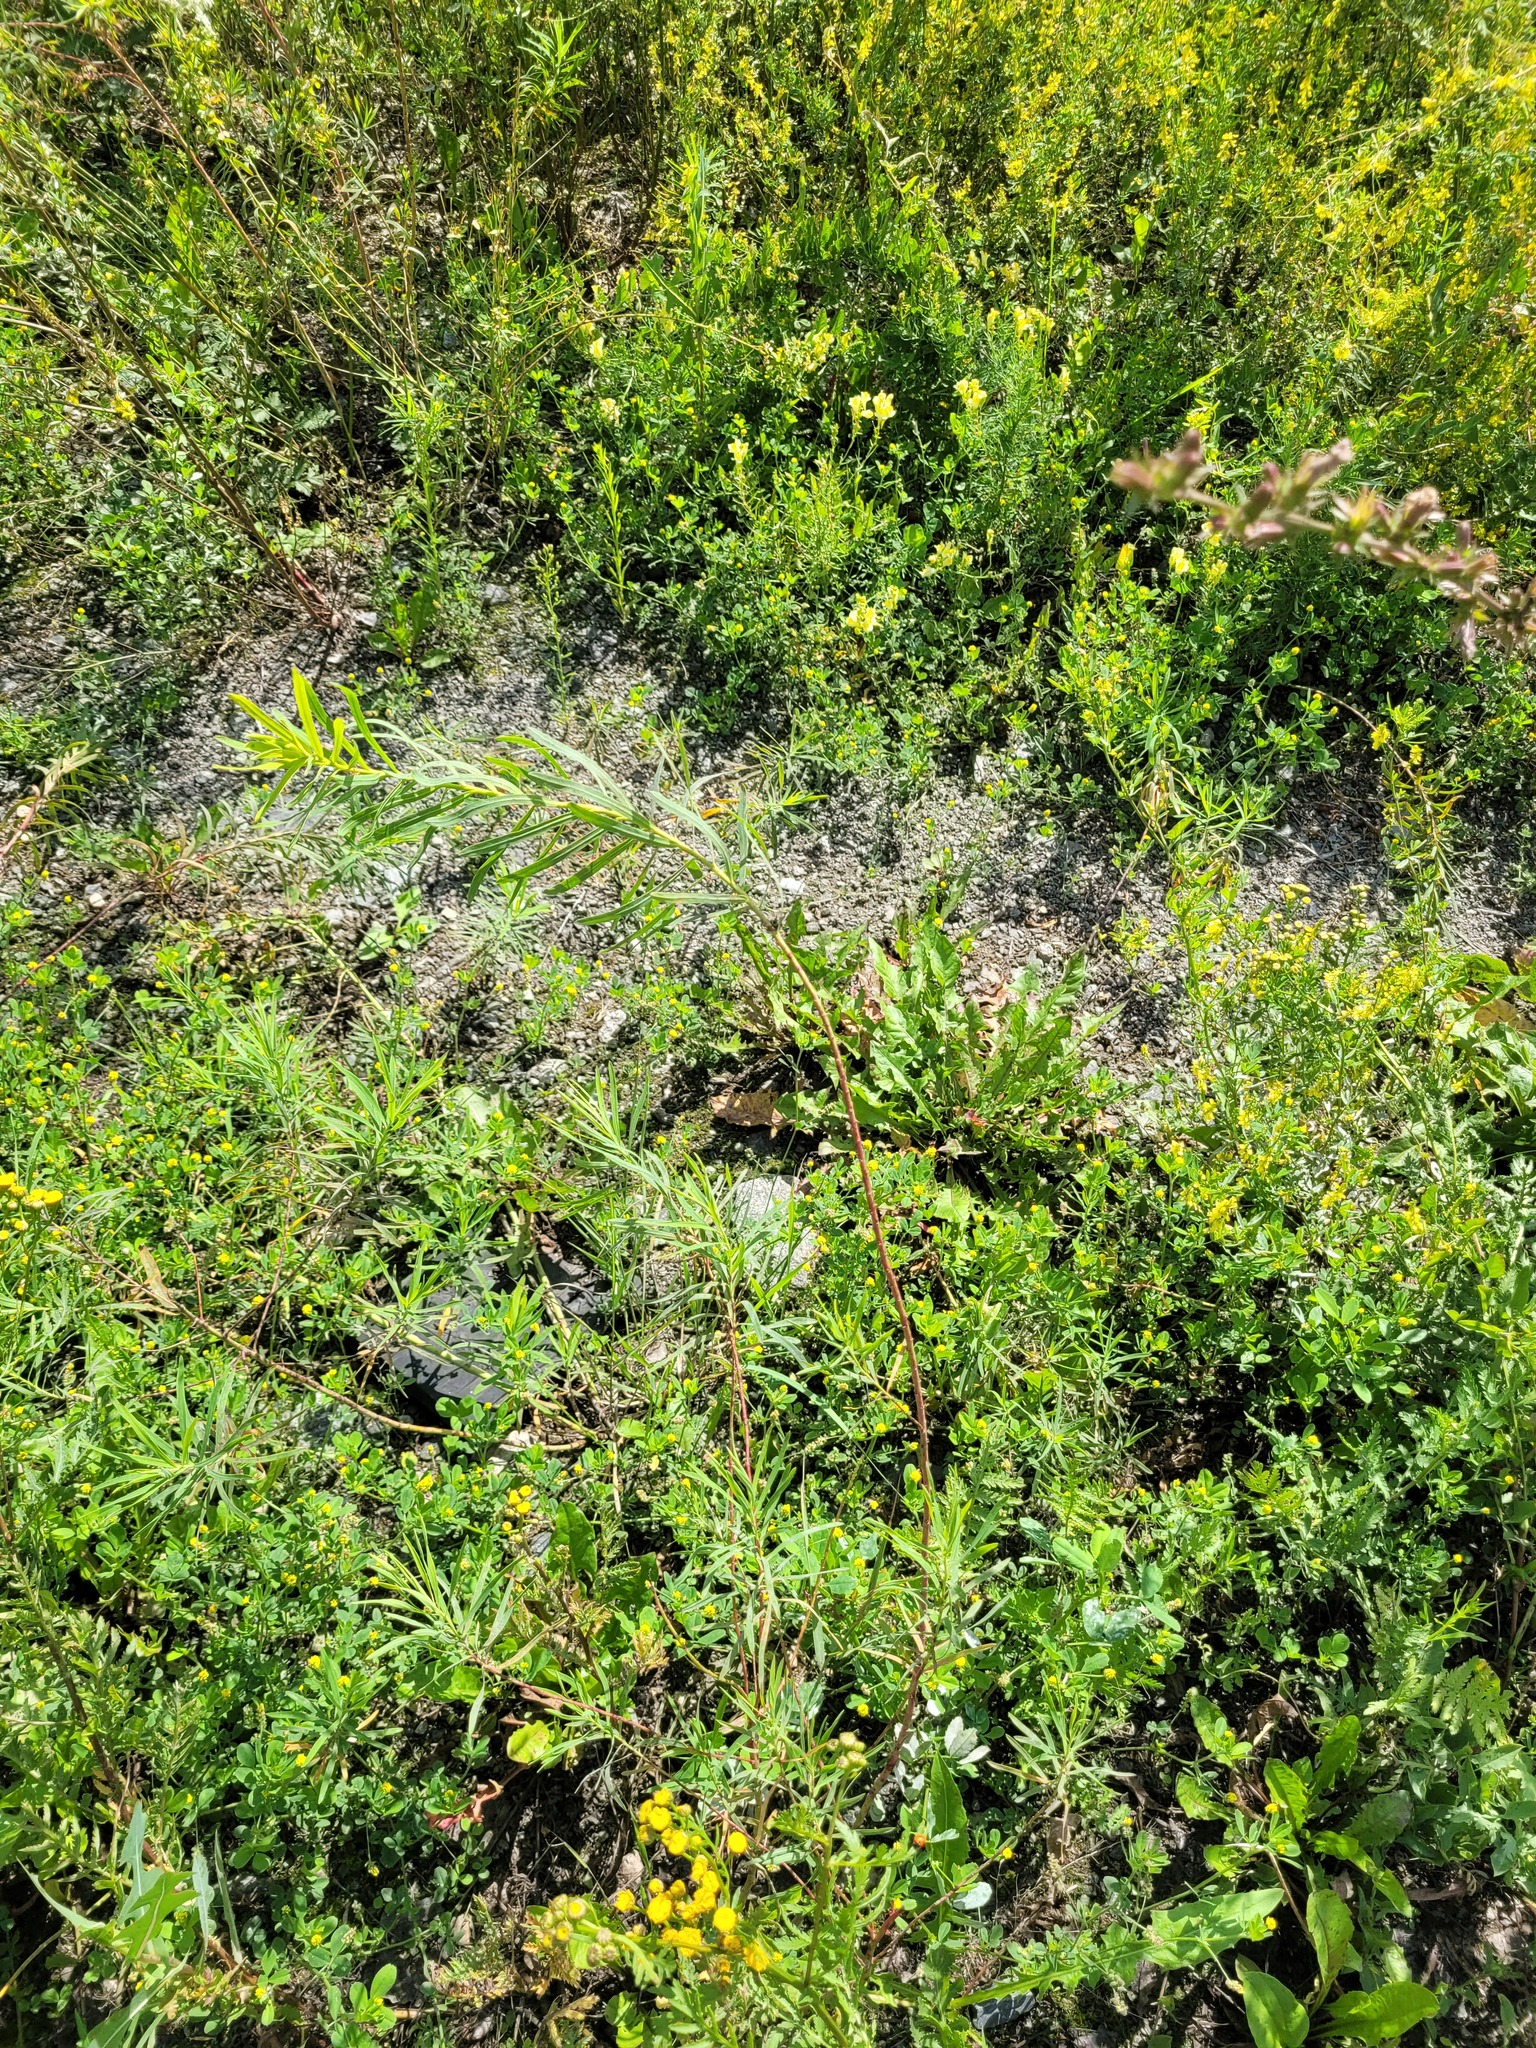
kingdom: Plantae
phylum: Tracheophyta
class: Magnoliopsida
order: Malpighiales
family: Euphorbiaceae
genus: Euphorbia
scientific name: Euphorbia virgata
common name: Leafy spurge
